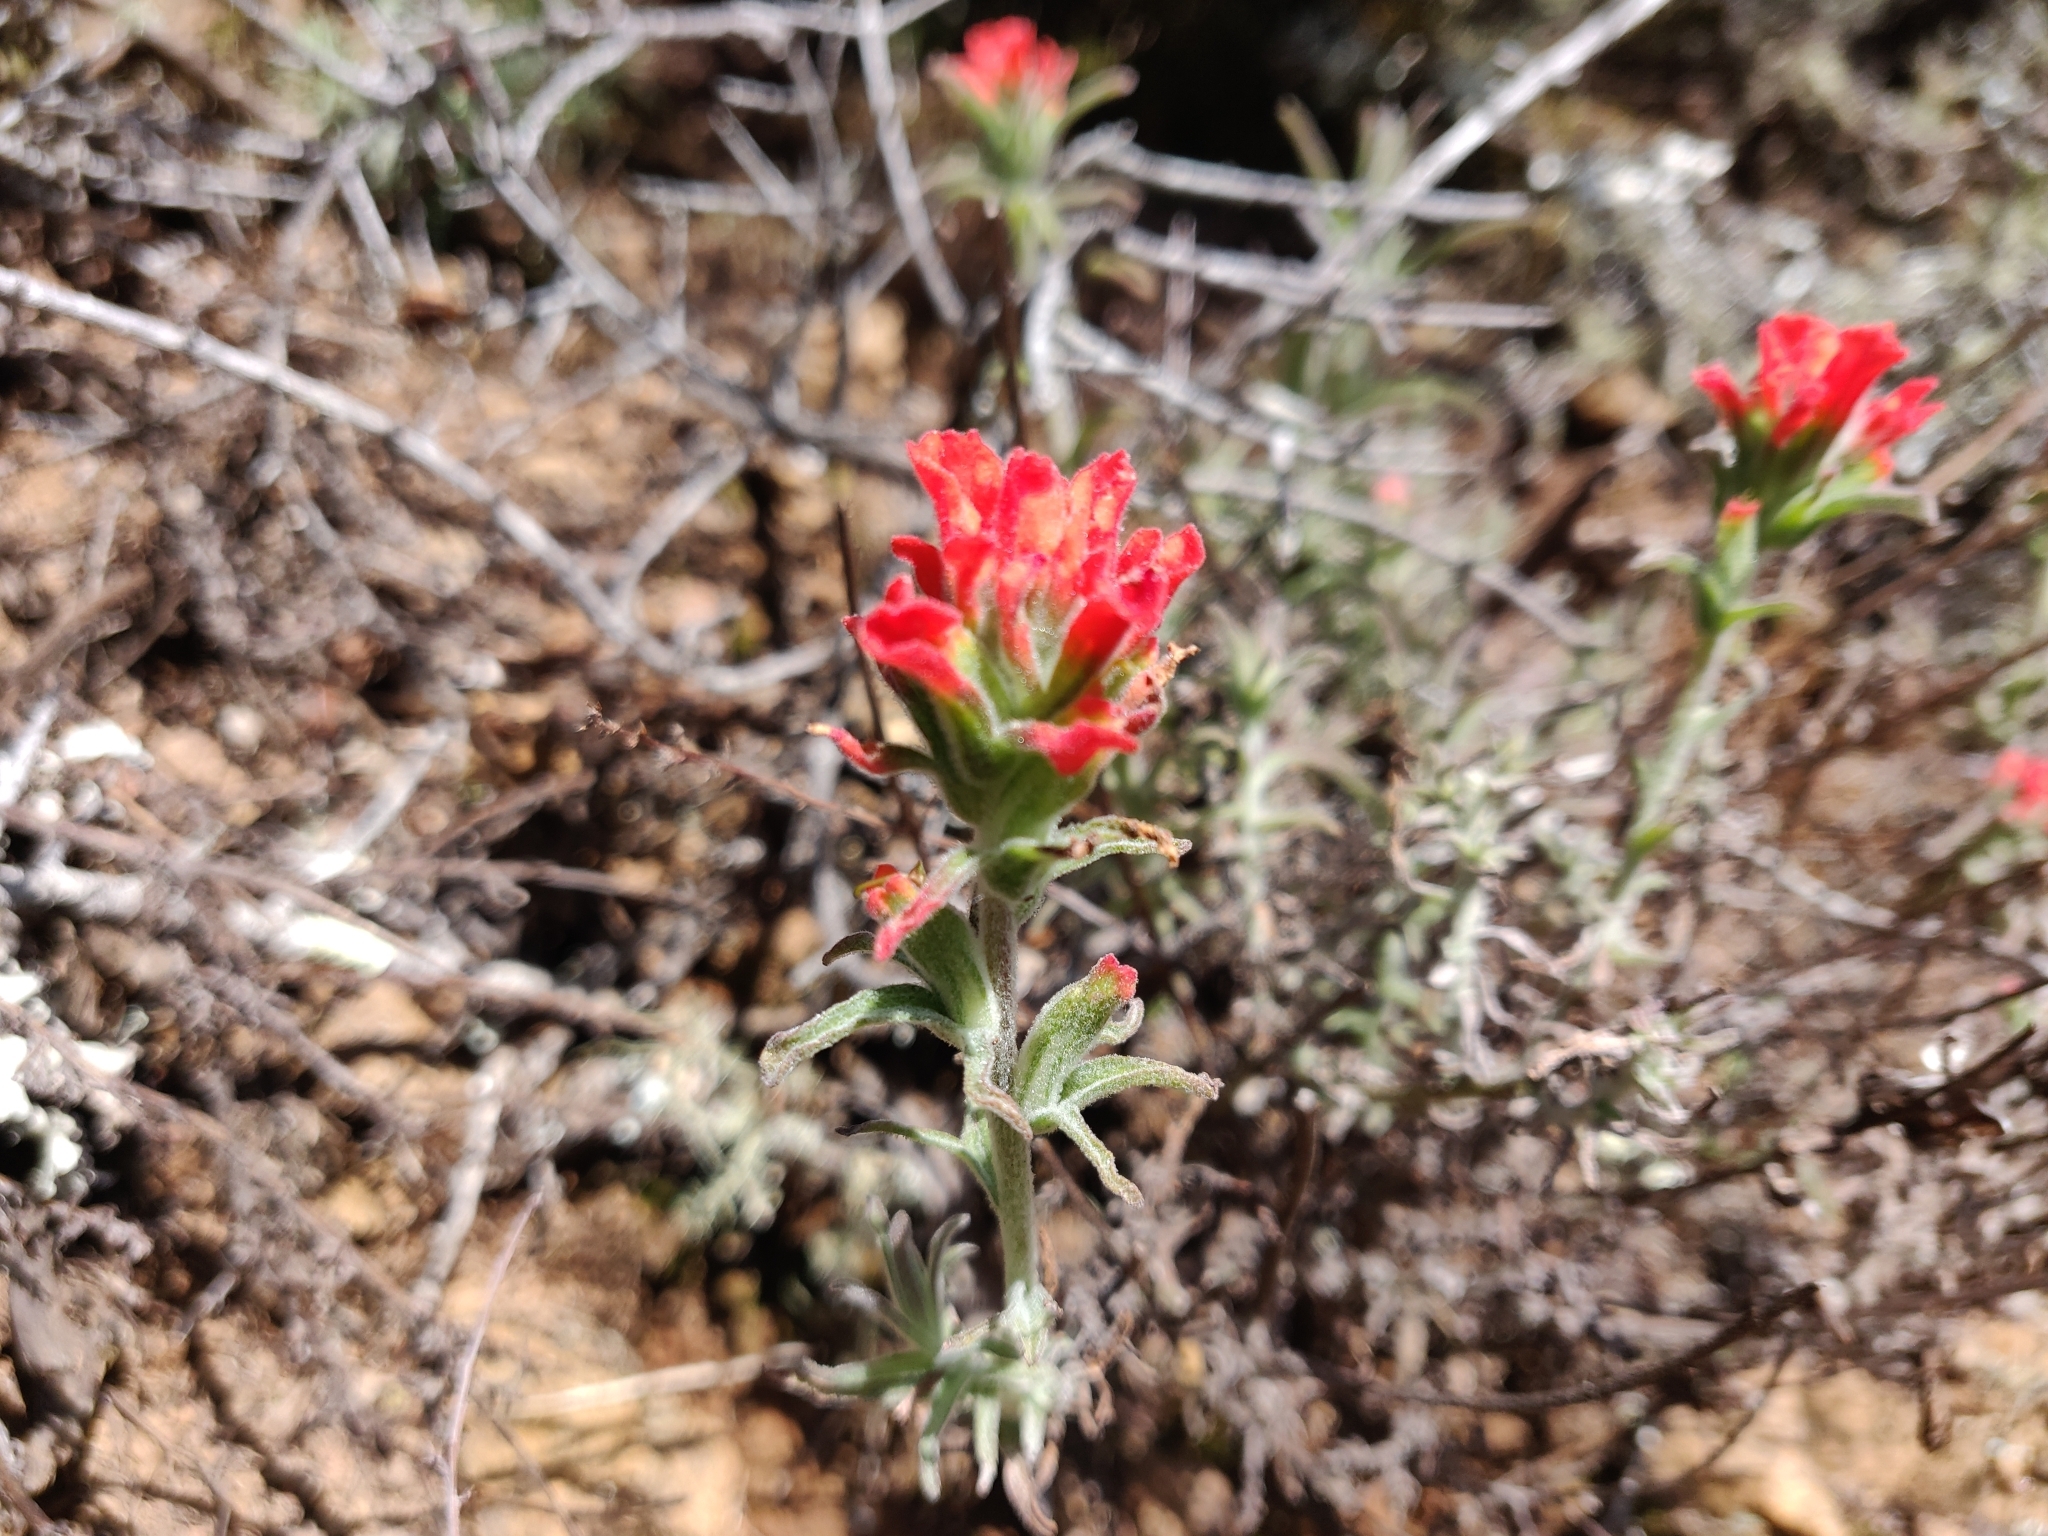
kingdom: Plantae
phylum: Tracheophyta
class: Magnoliopsida
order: Lamiales
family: Orobanchaceae
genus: Castilleja
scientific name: Castilleja foliolosa
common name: Woolly indian paintbrush
